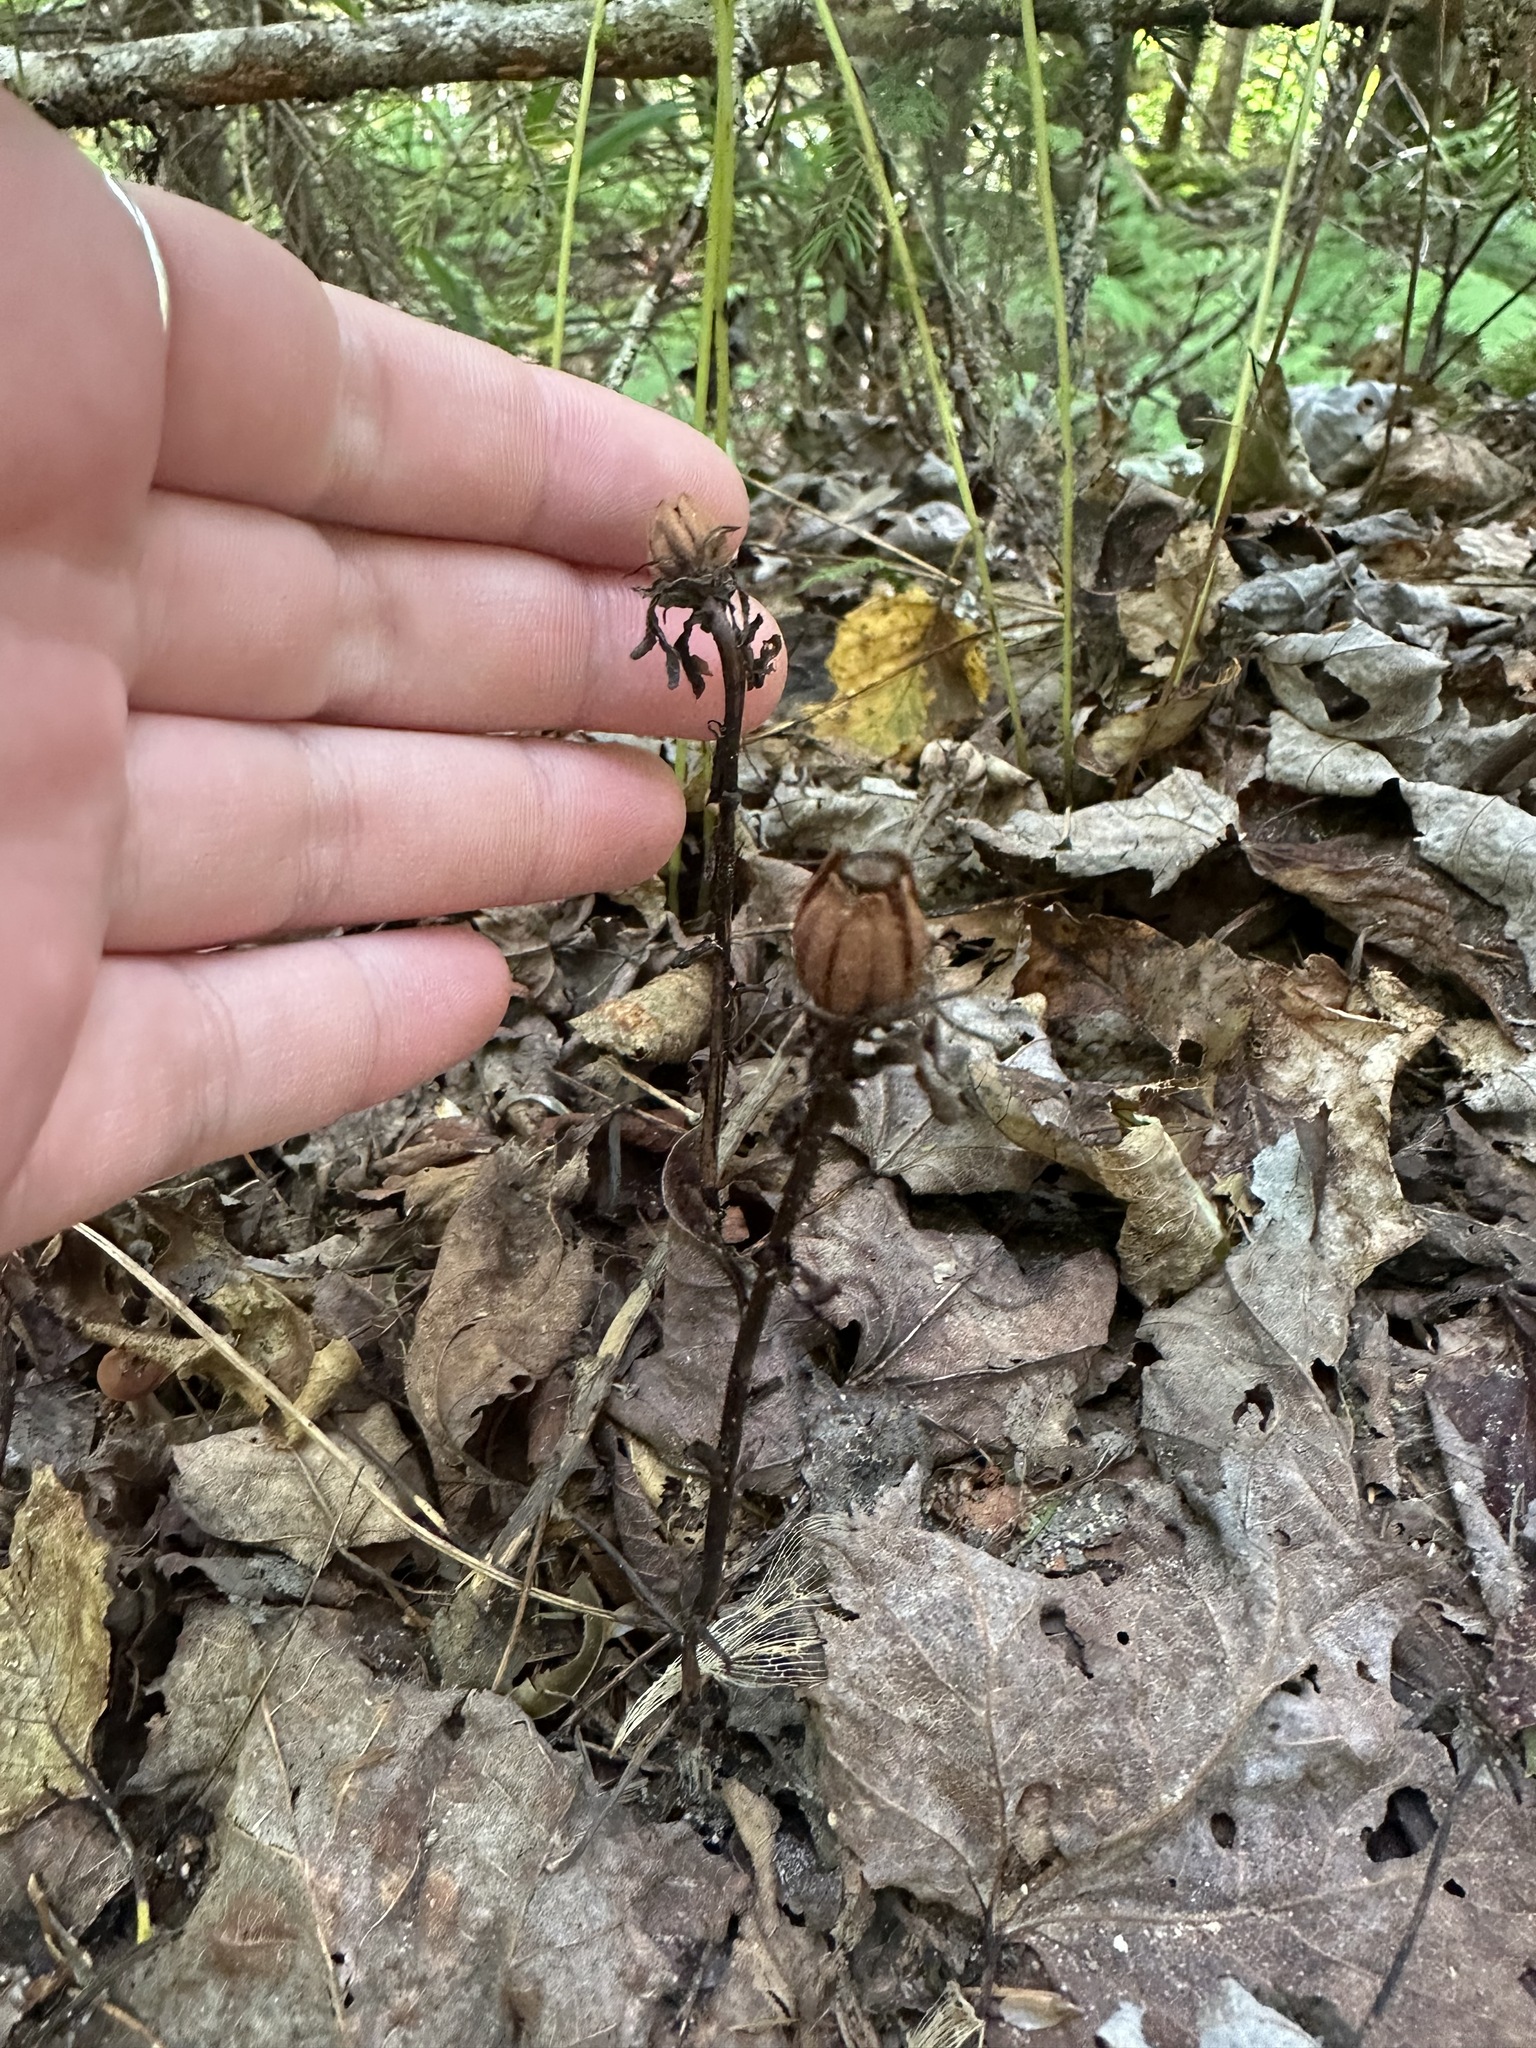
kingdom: Plantae
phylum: Tracheophyta
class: Magnoliopsida
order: Ericales
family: Ericaceae
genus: Monotropa
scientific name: Monotropa uniflora
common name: Convulsion root
